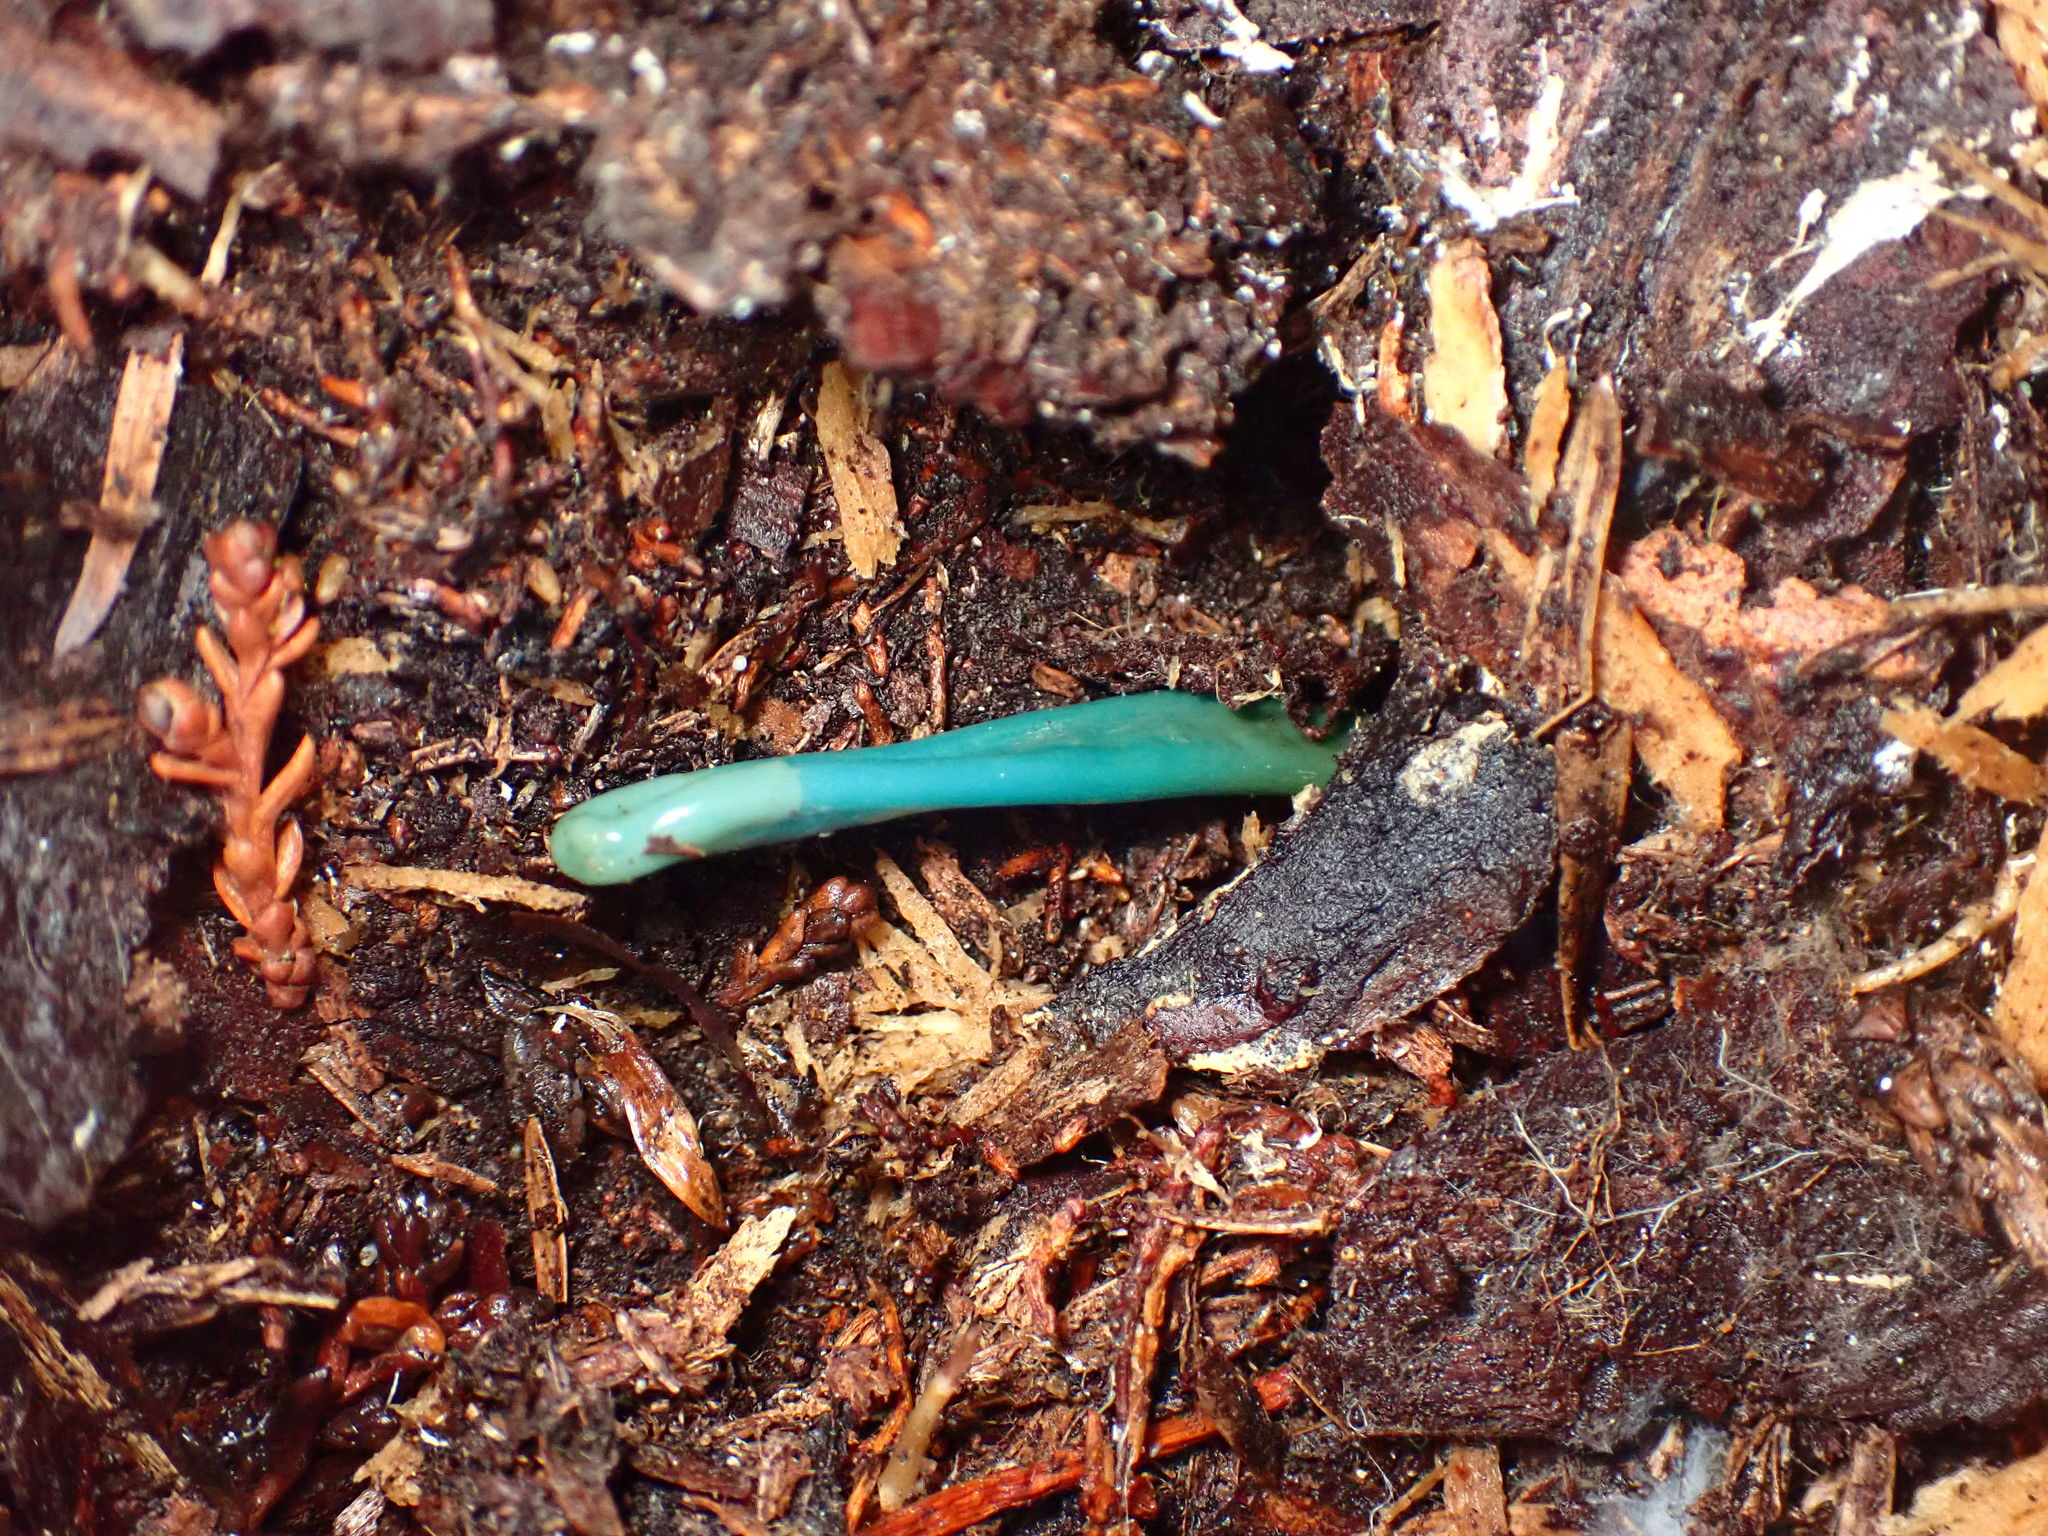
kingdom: Fungi
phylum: Ascomycota
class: Leotiomycetes
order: Leotiales
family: Leotiaceae
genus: Microglossum
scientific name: Microglossum viride
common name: Green earthtongue
